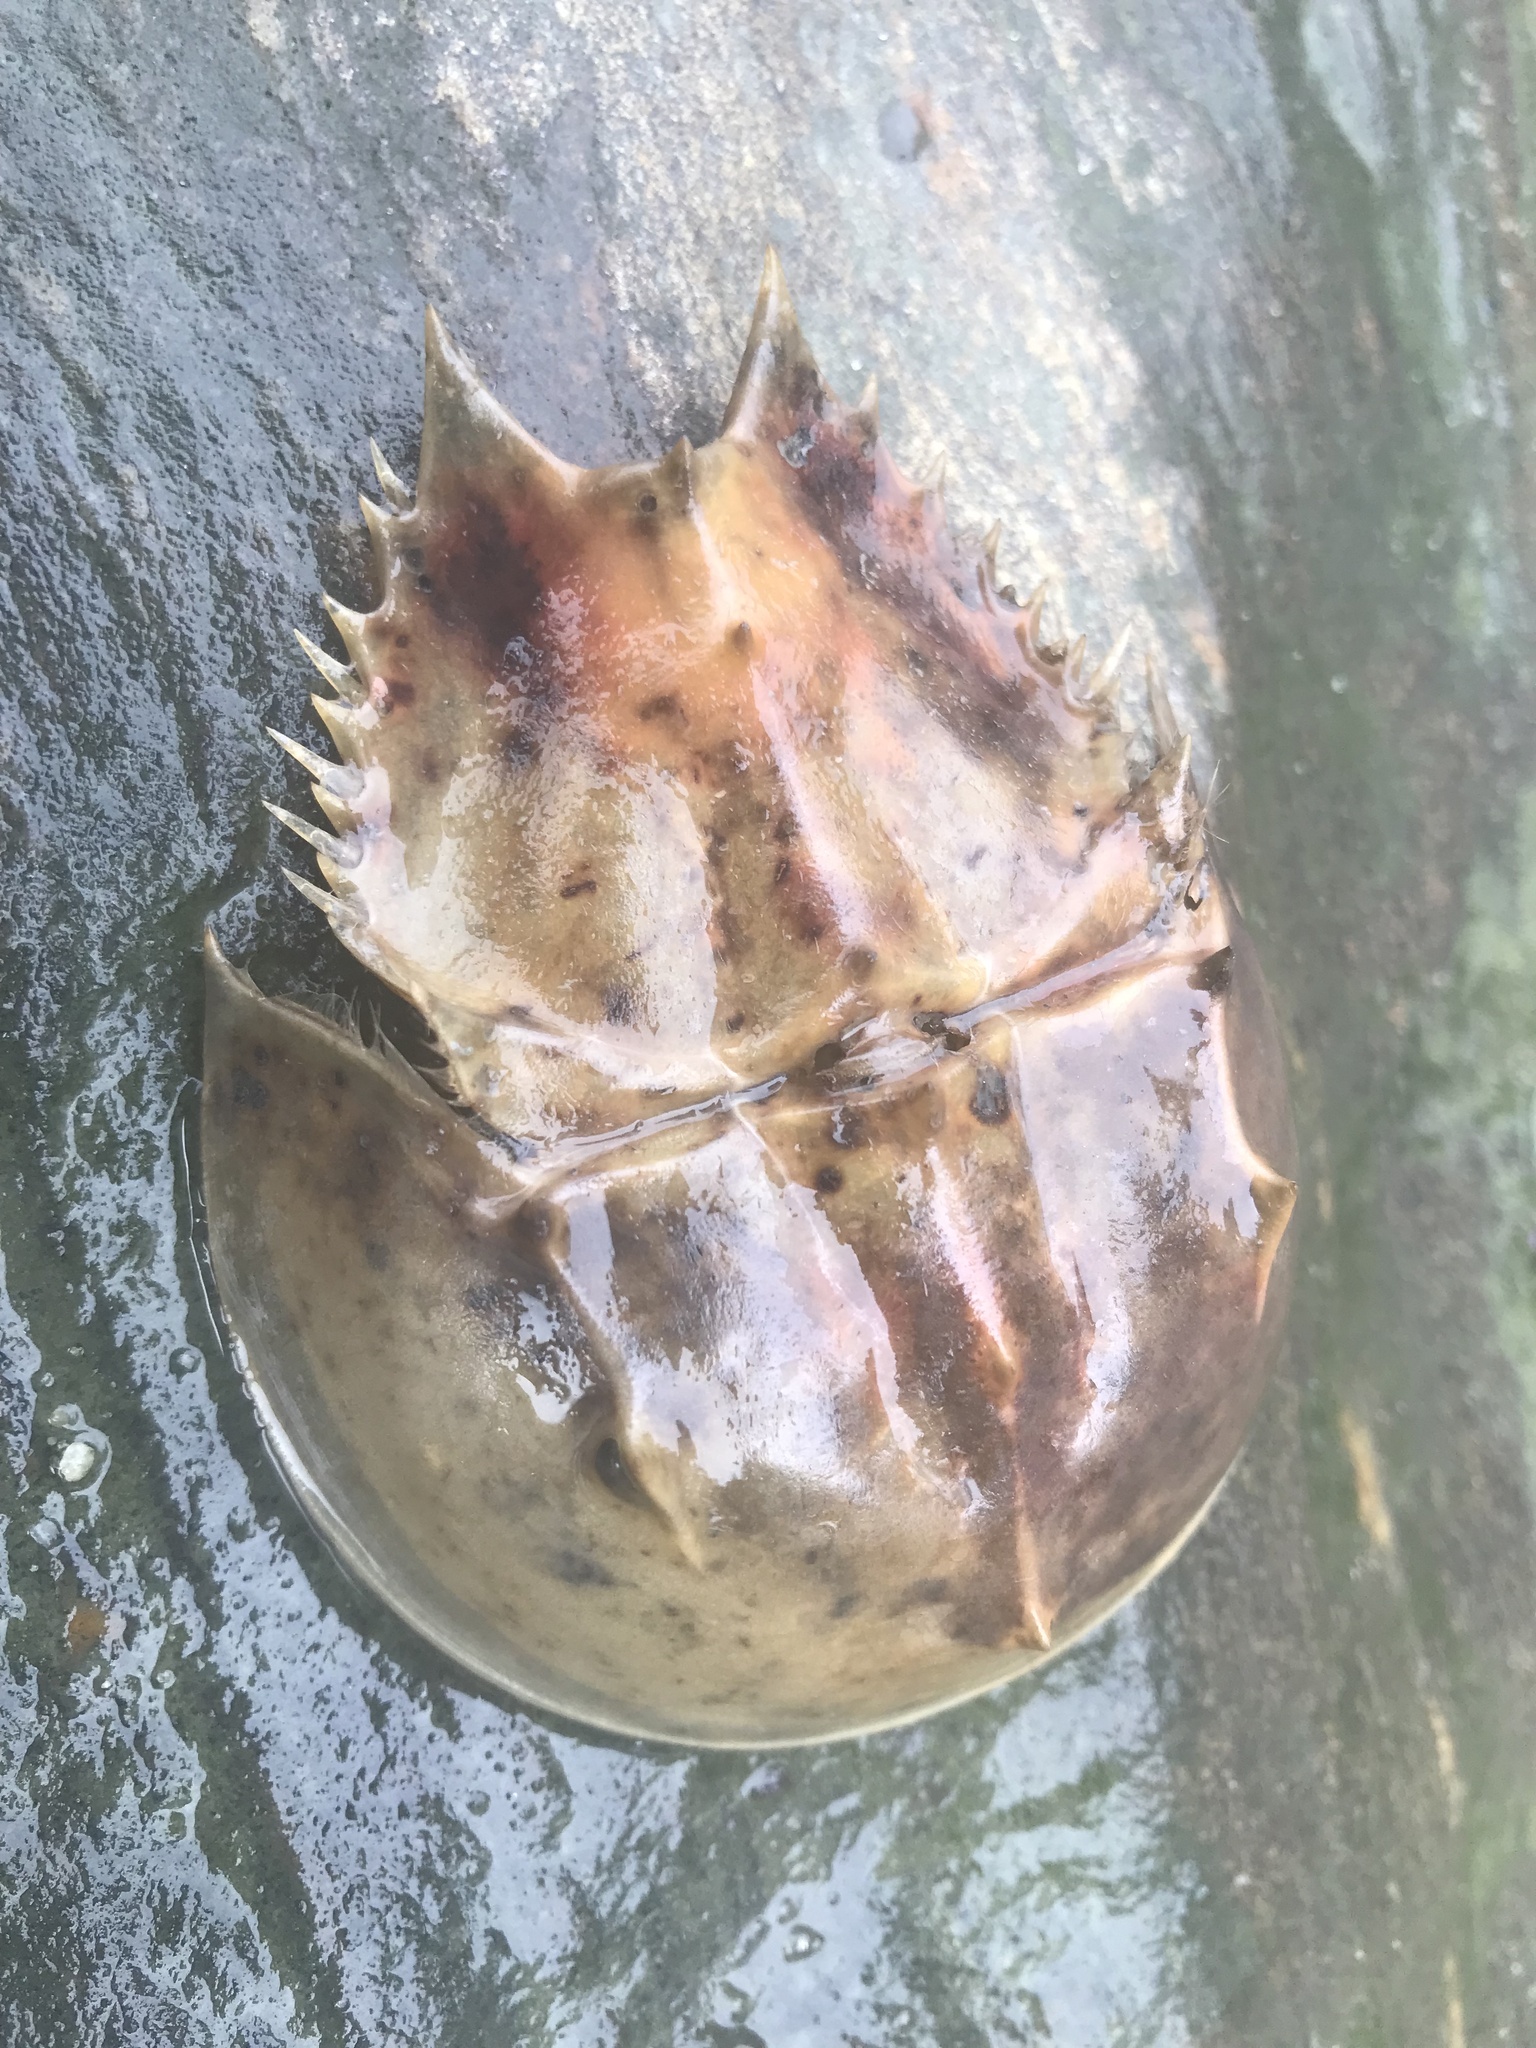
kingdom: Animalia
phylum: Arthropoda
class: Merostomata
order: Xiphosurida
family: Limulidae
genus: Limulus
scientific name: Limulus polyphemus
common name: Horseshoe crab
